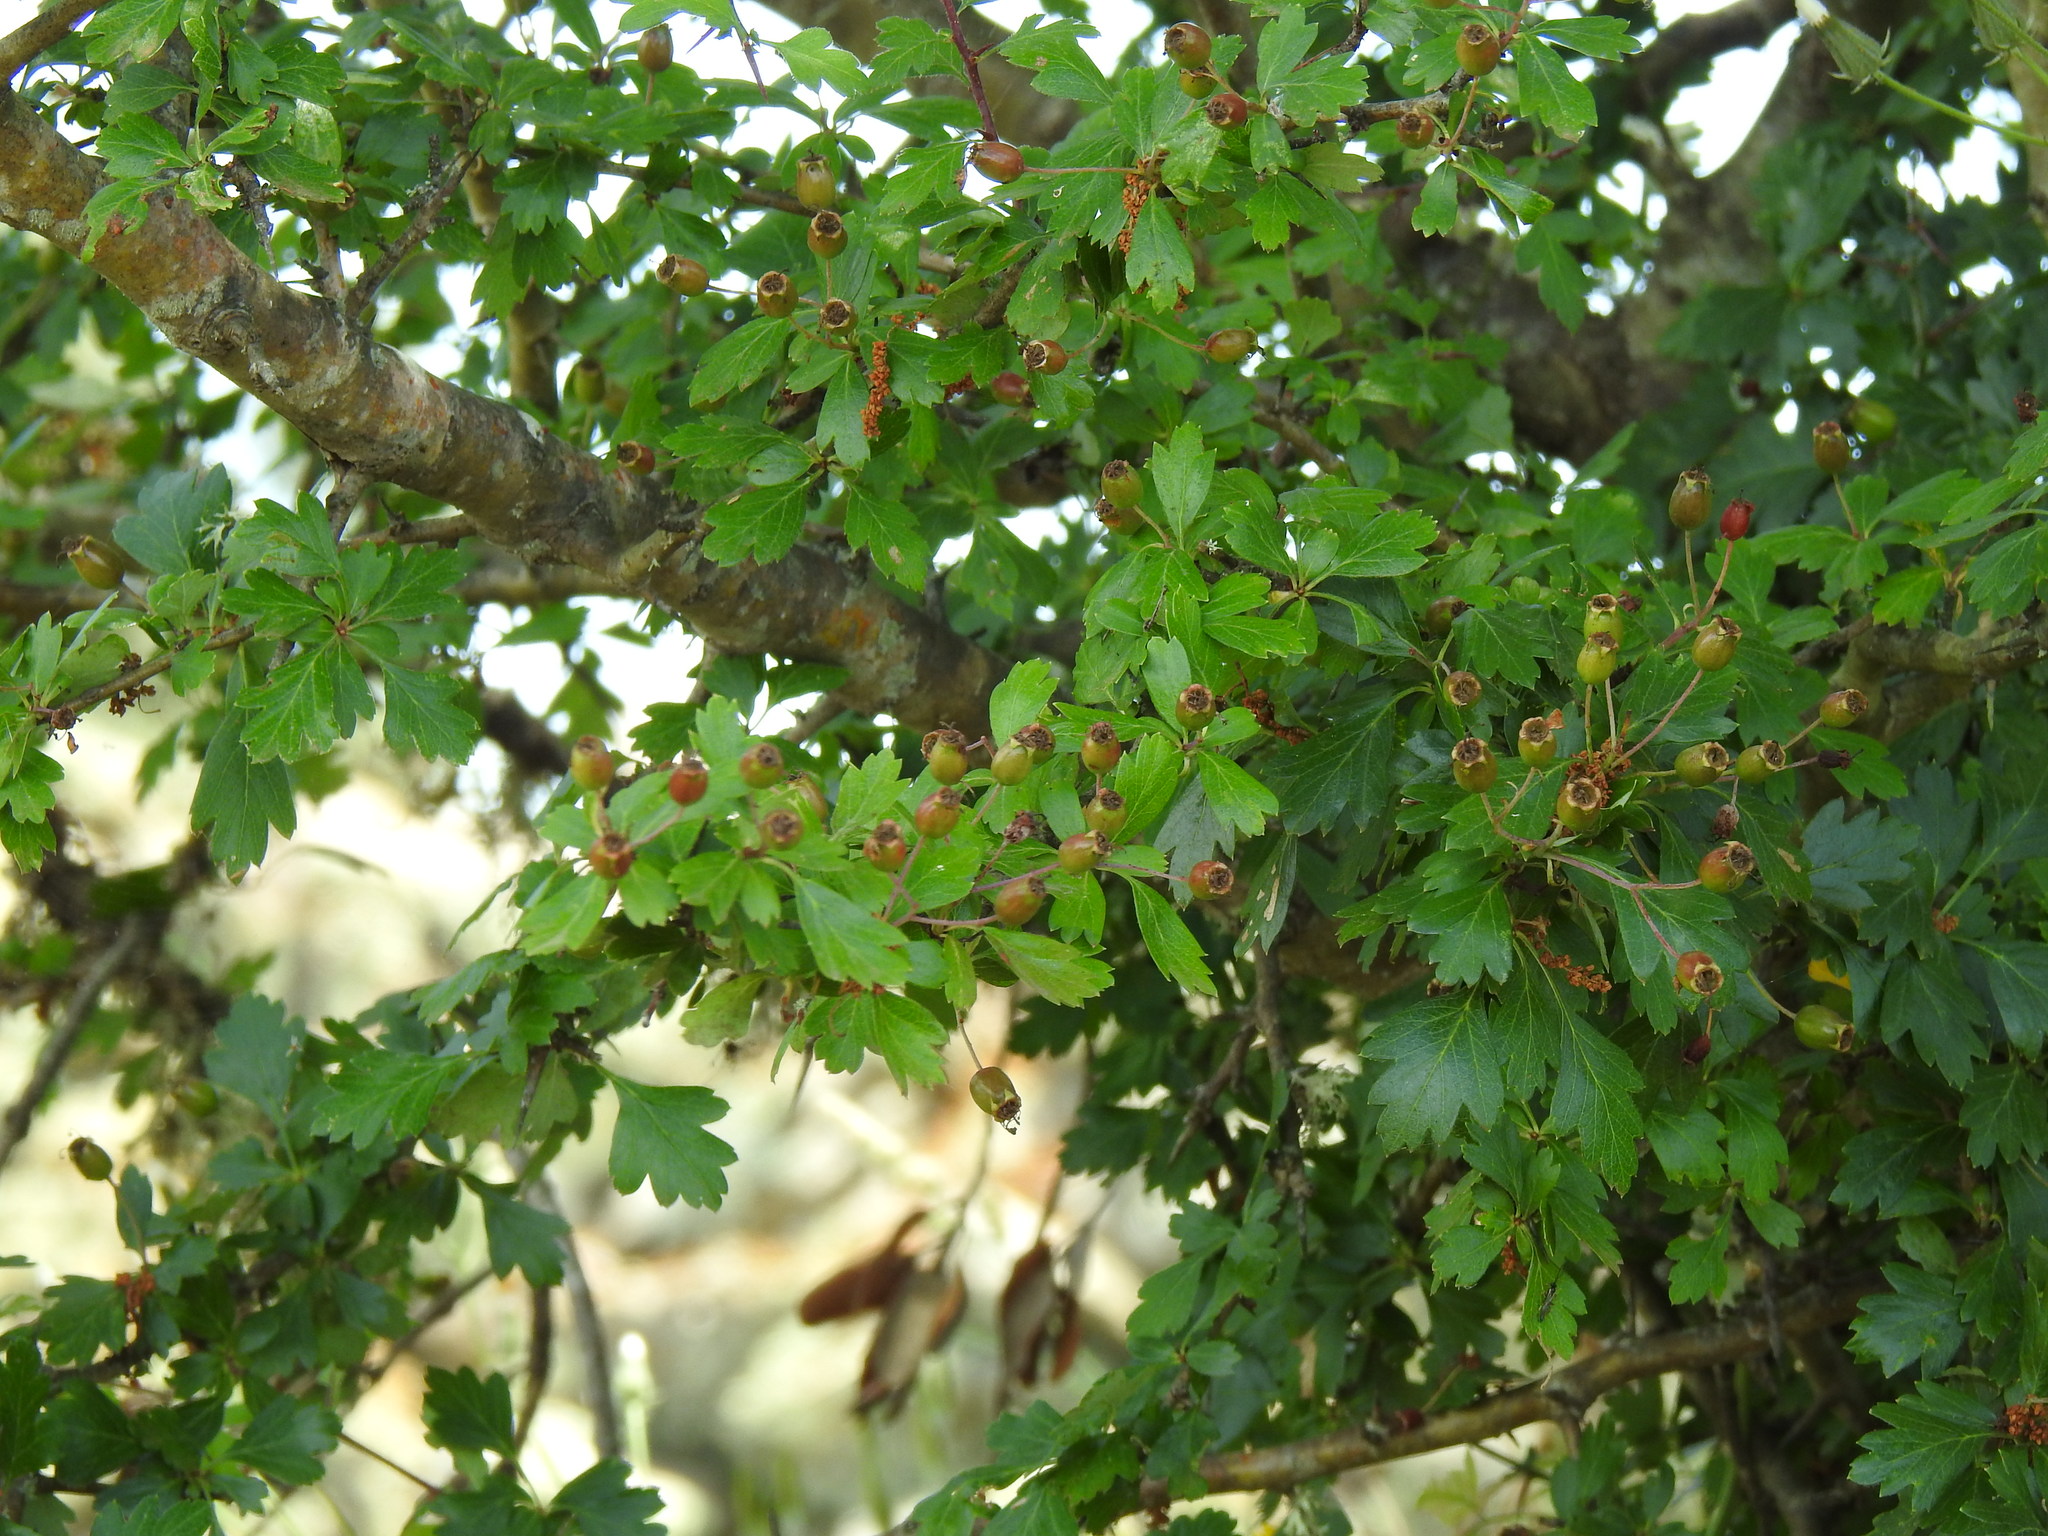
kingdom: Plantae
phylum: Tracheophyta
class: Magnoliopsida
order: Rosales
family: Rosaceae
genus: Crataegus
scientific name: Crataegus monogyna
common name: Hawthorn
